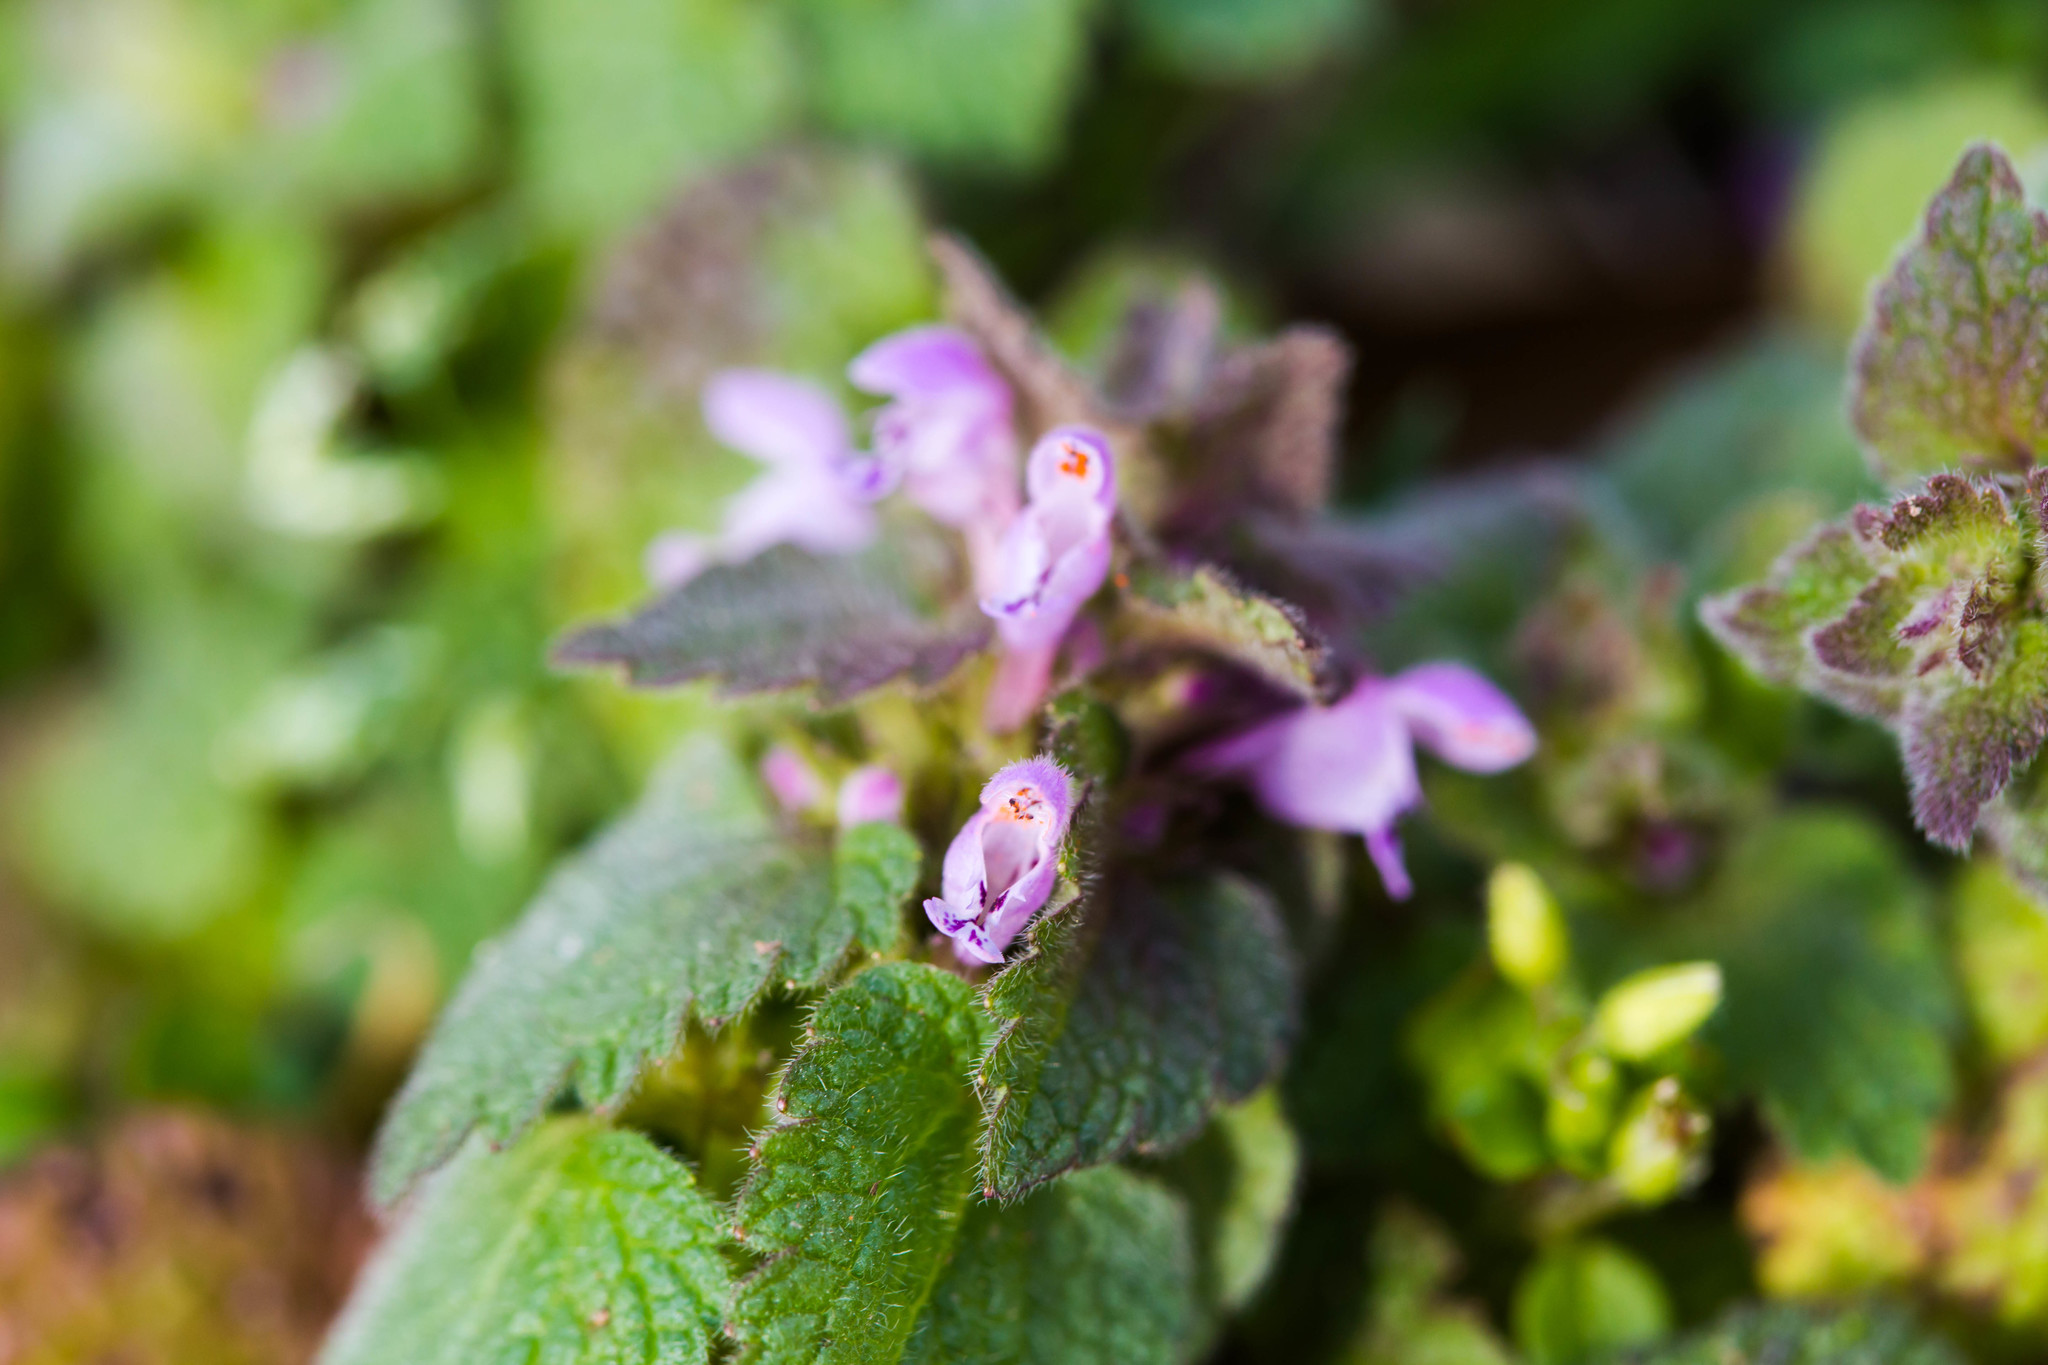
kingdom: Plantae
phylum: Tracheophyta
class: Magnoliopsida
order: Lamiales
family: Lamiaceae
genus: Lamium
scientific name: Lamium purpureum
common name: Red dead-nettle
